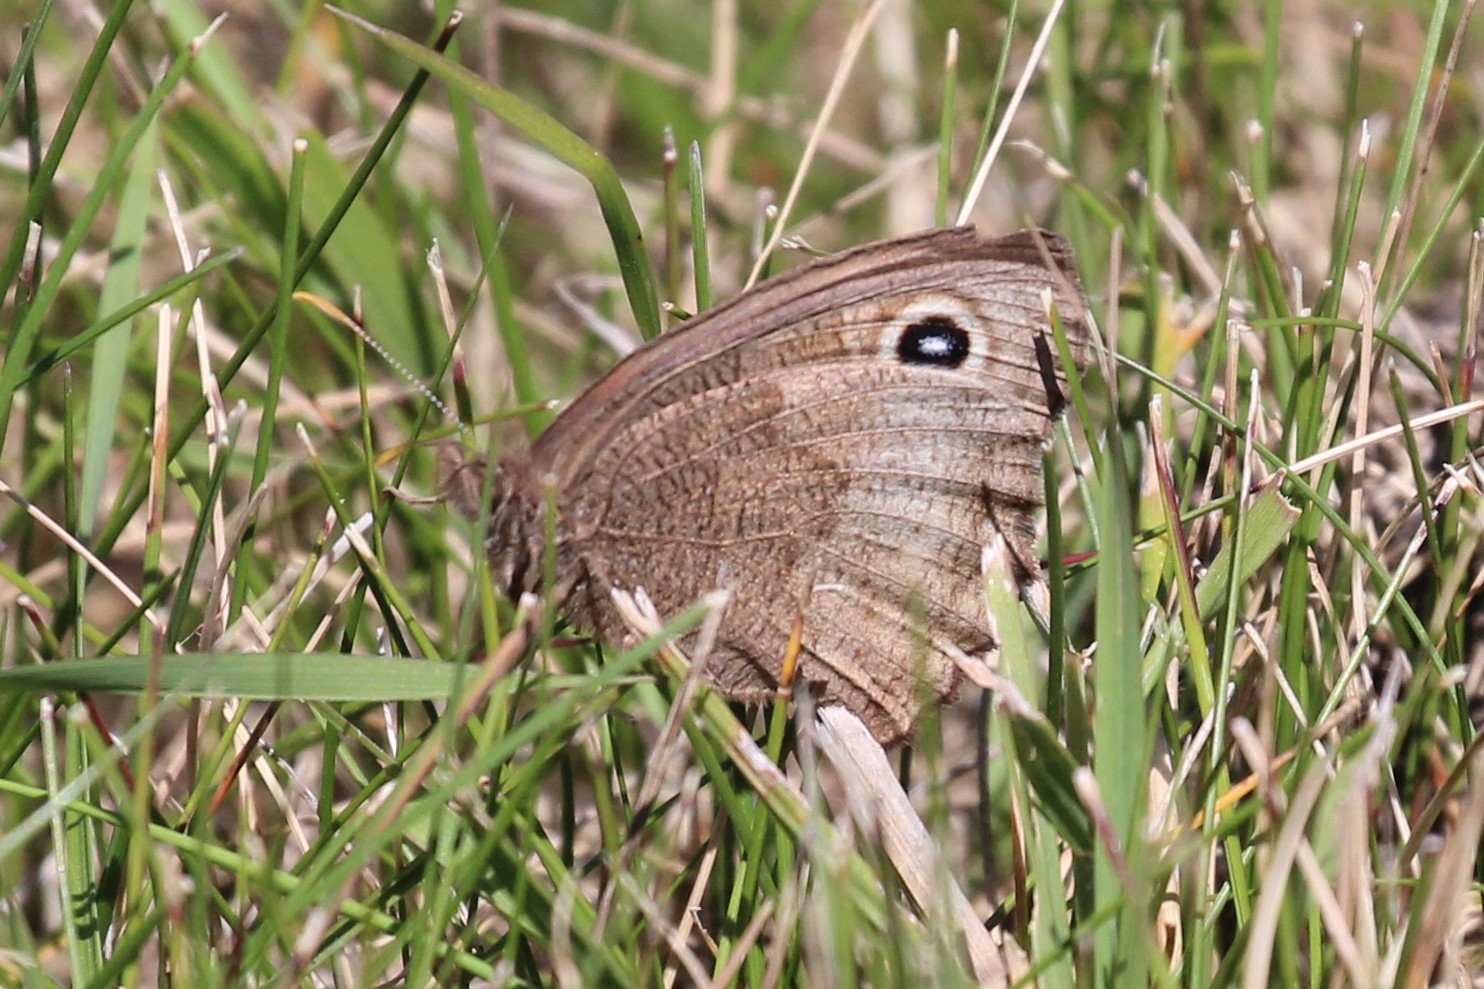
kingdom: Animalia
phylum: Arthropoda
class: Insecta
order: Lepidoptera
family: Nymphalidae
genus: Cercyonis
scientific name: Cercyonis pegala
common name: Common wood-nymph
